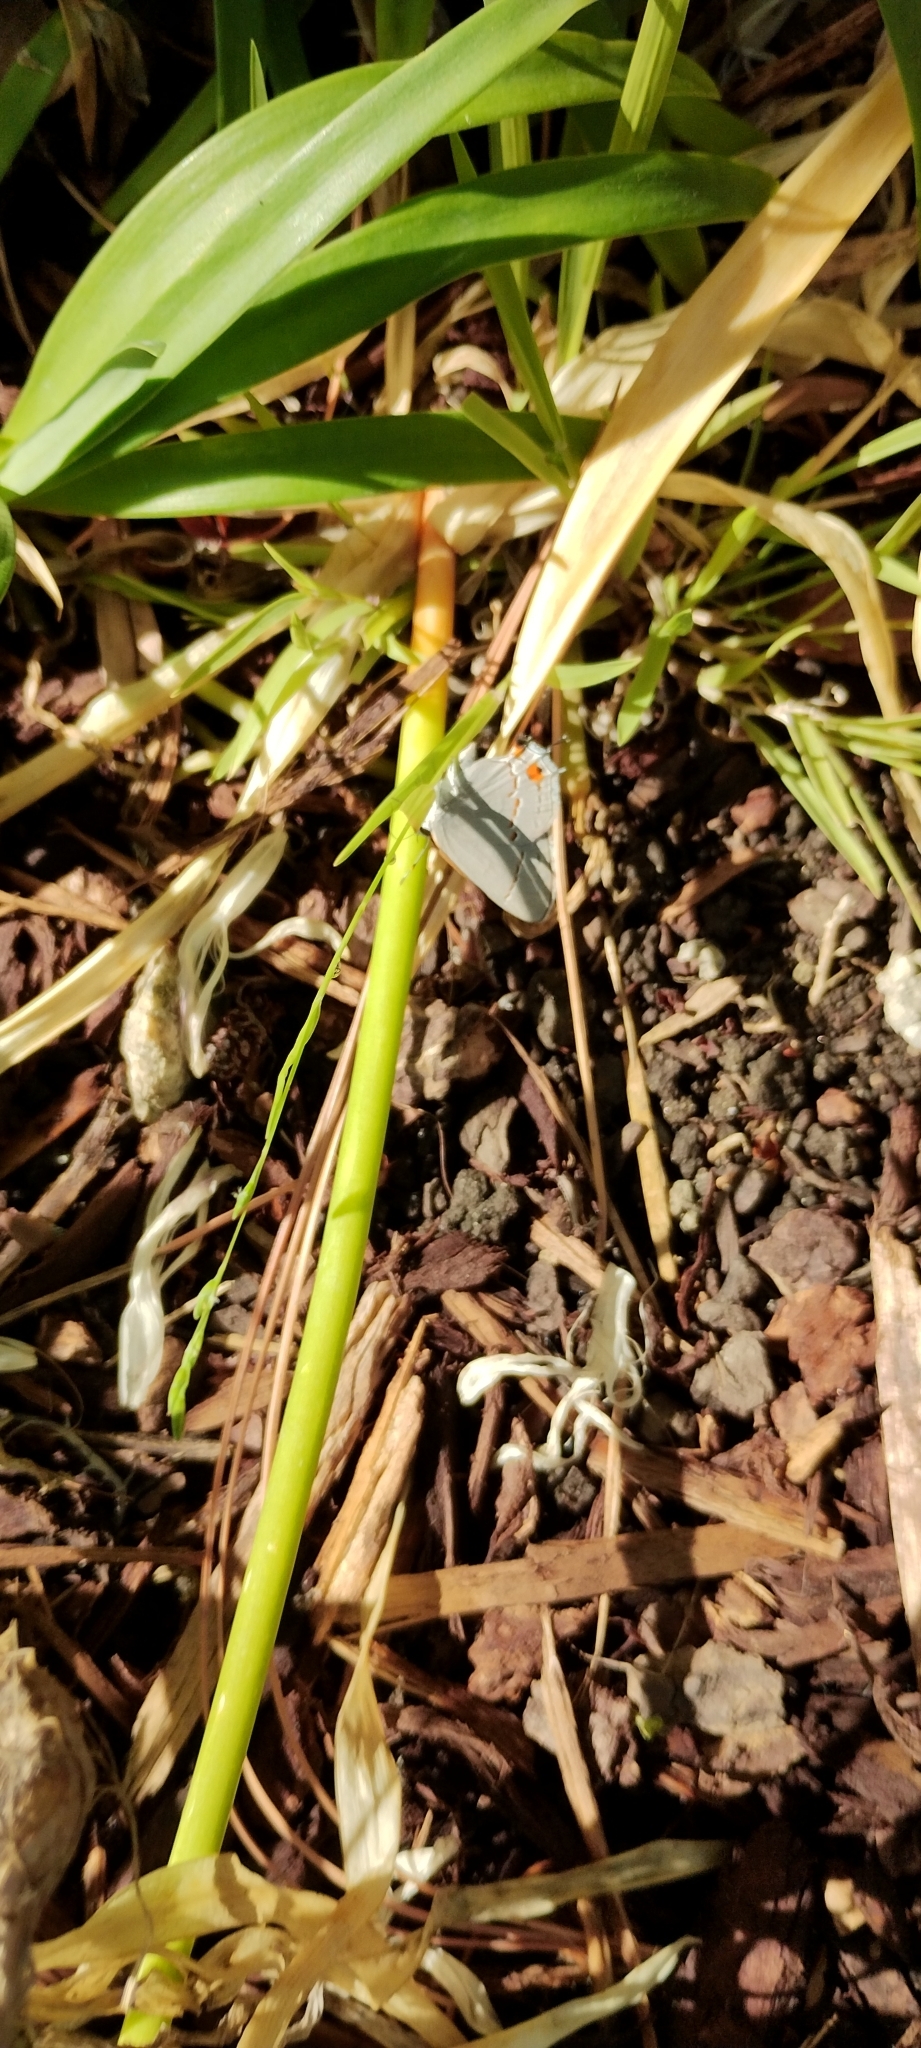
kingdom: Animalia
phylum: Arthropoda
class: Insecta
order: Lepidoptera
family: Lycaenidae
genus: Strymon
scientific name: Strymon melinus
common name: Gray hairstreak
